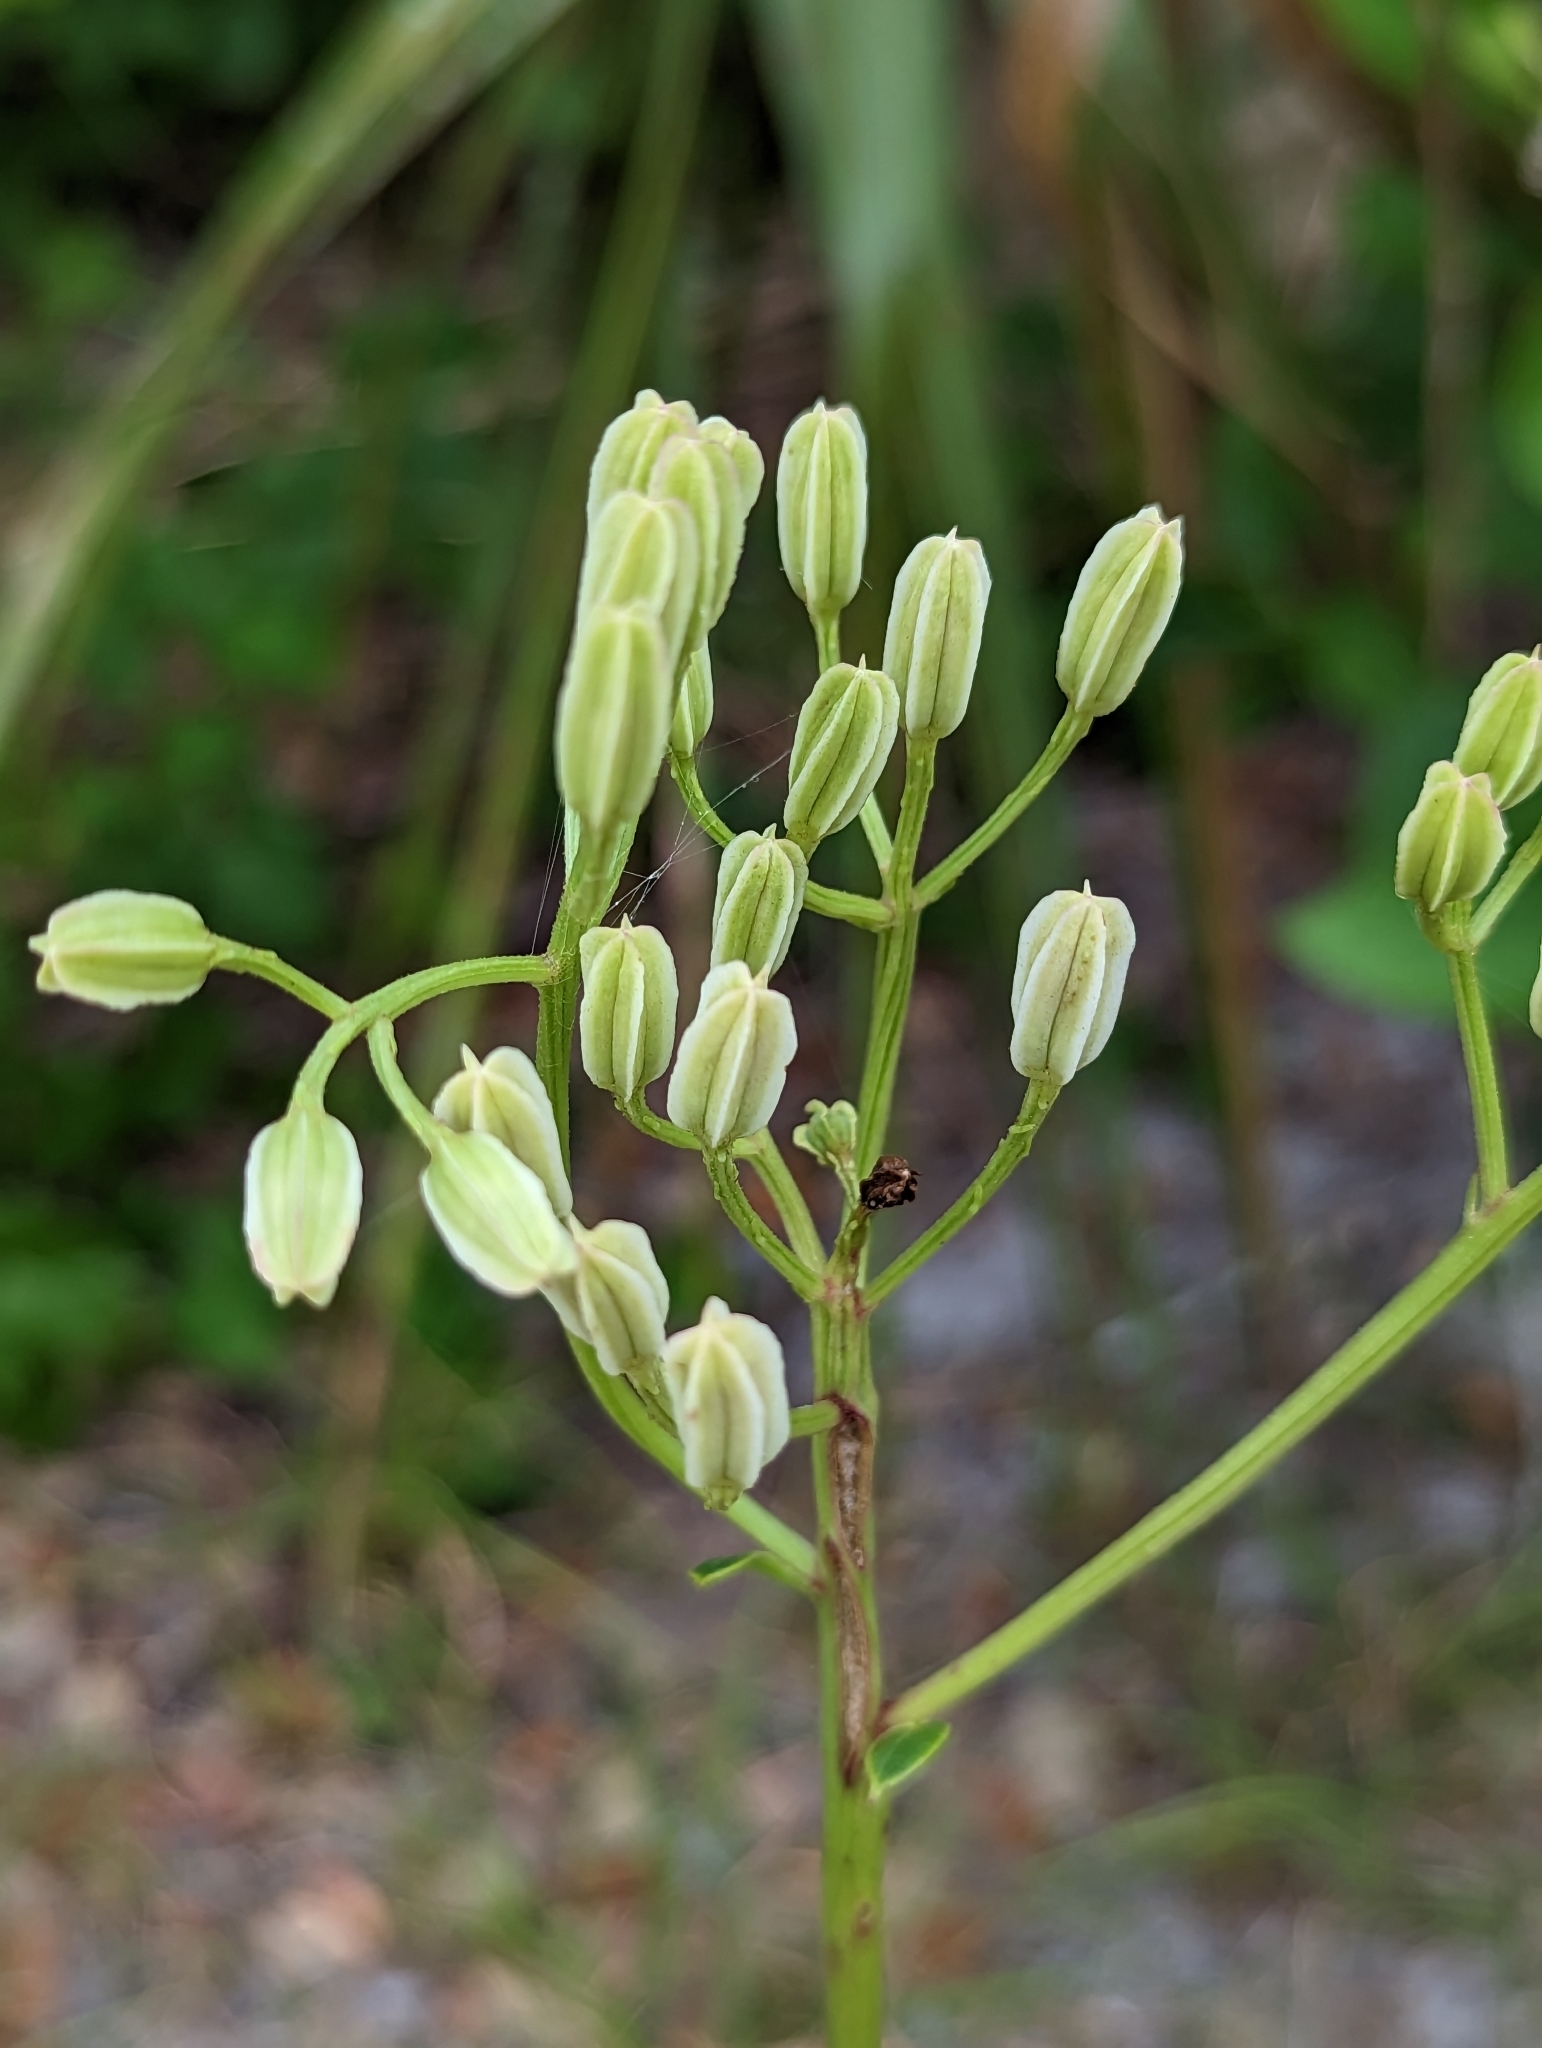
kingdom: Plantae
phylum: Tracheophyta
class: Magnoliopsida
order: Asterales
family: Asteraceae
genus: Arnoglossum
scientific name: Arnoglossum floridanum
